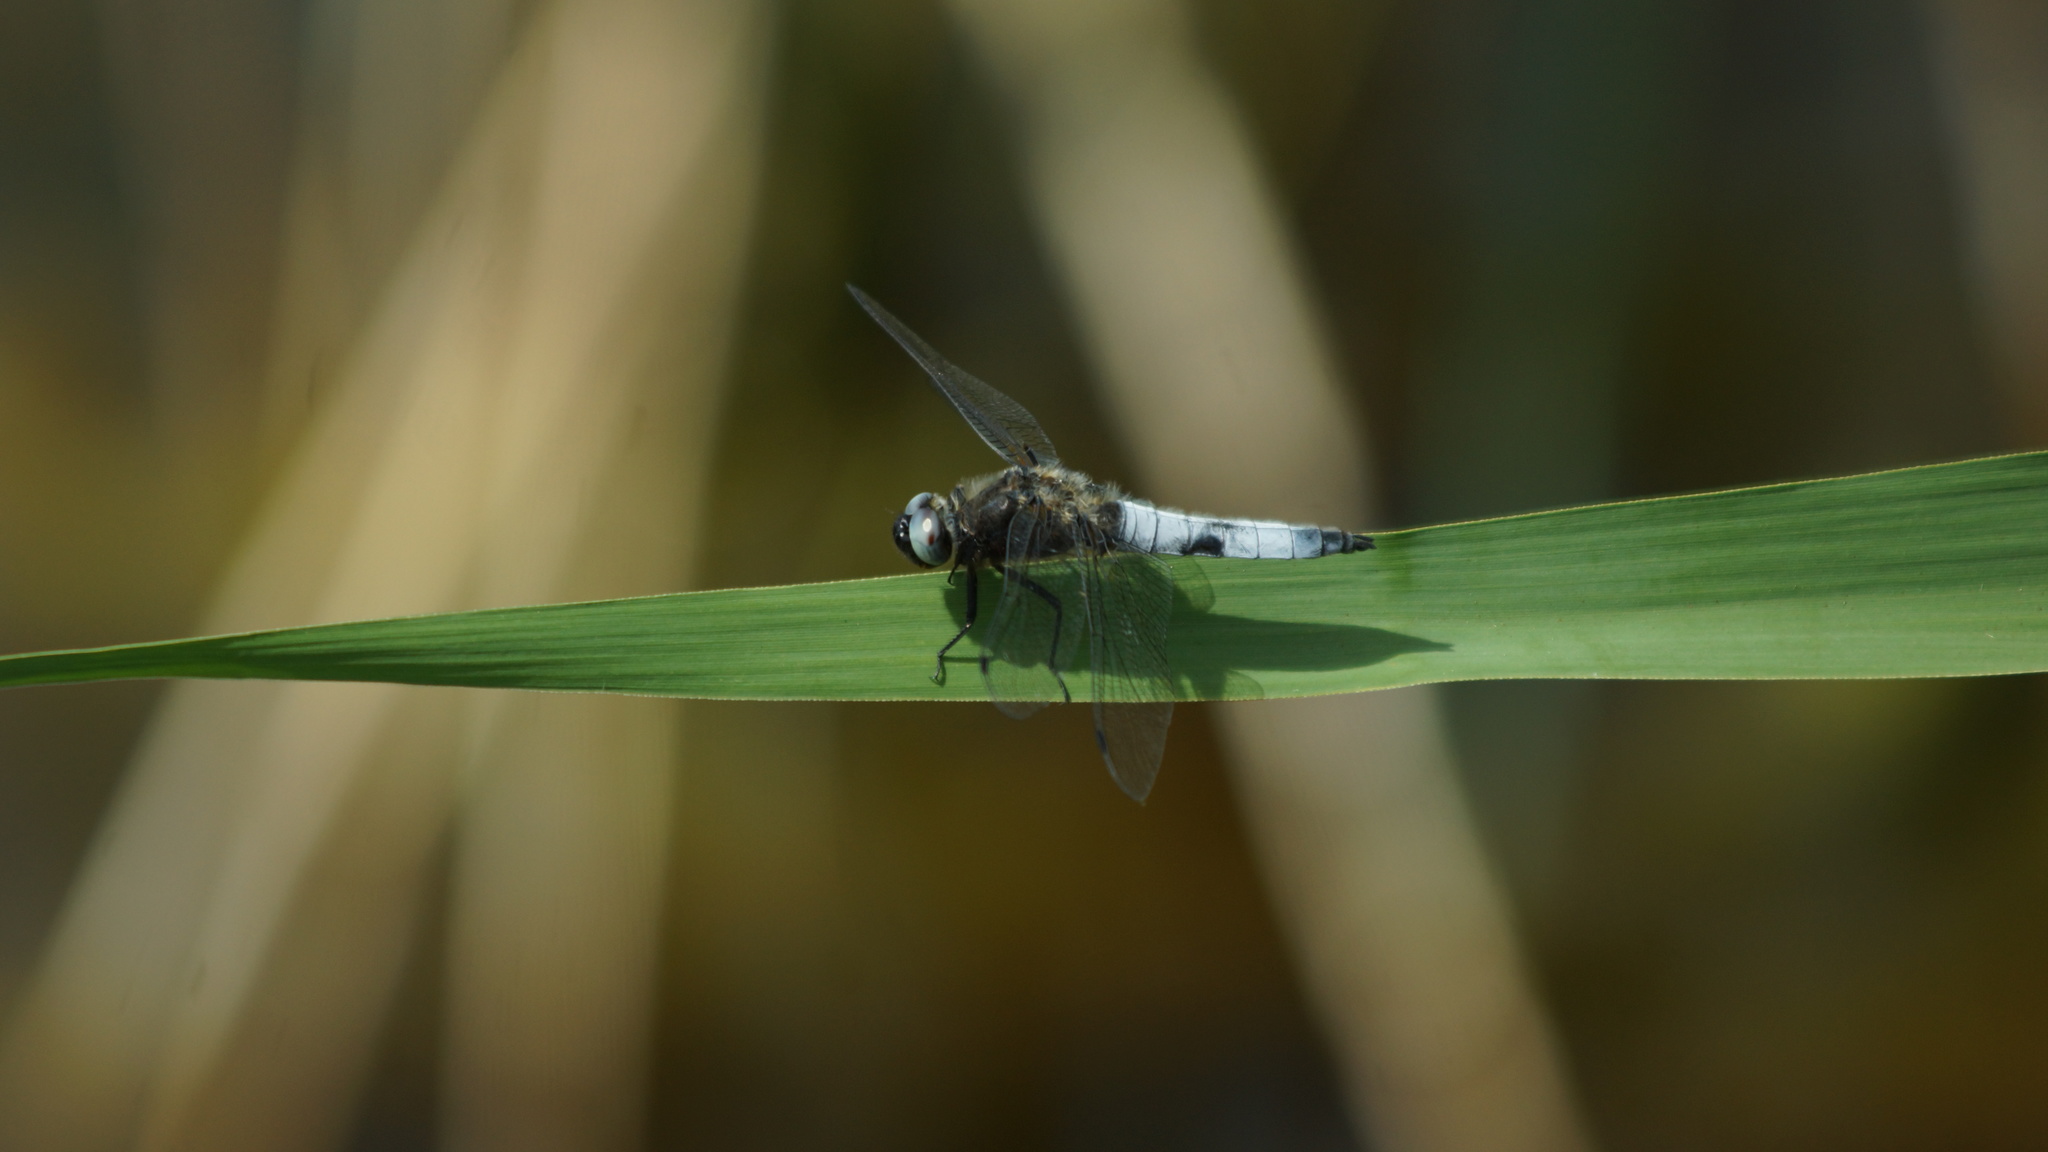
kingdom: Animalia
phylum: Arthropoda
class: Insecta
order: Odonata
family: Libellulidae
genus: Libellula
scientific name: Libellula fulva
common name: Blue chaser
